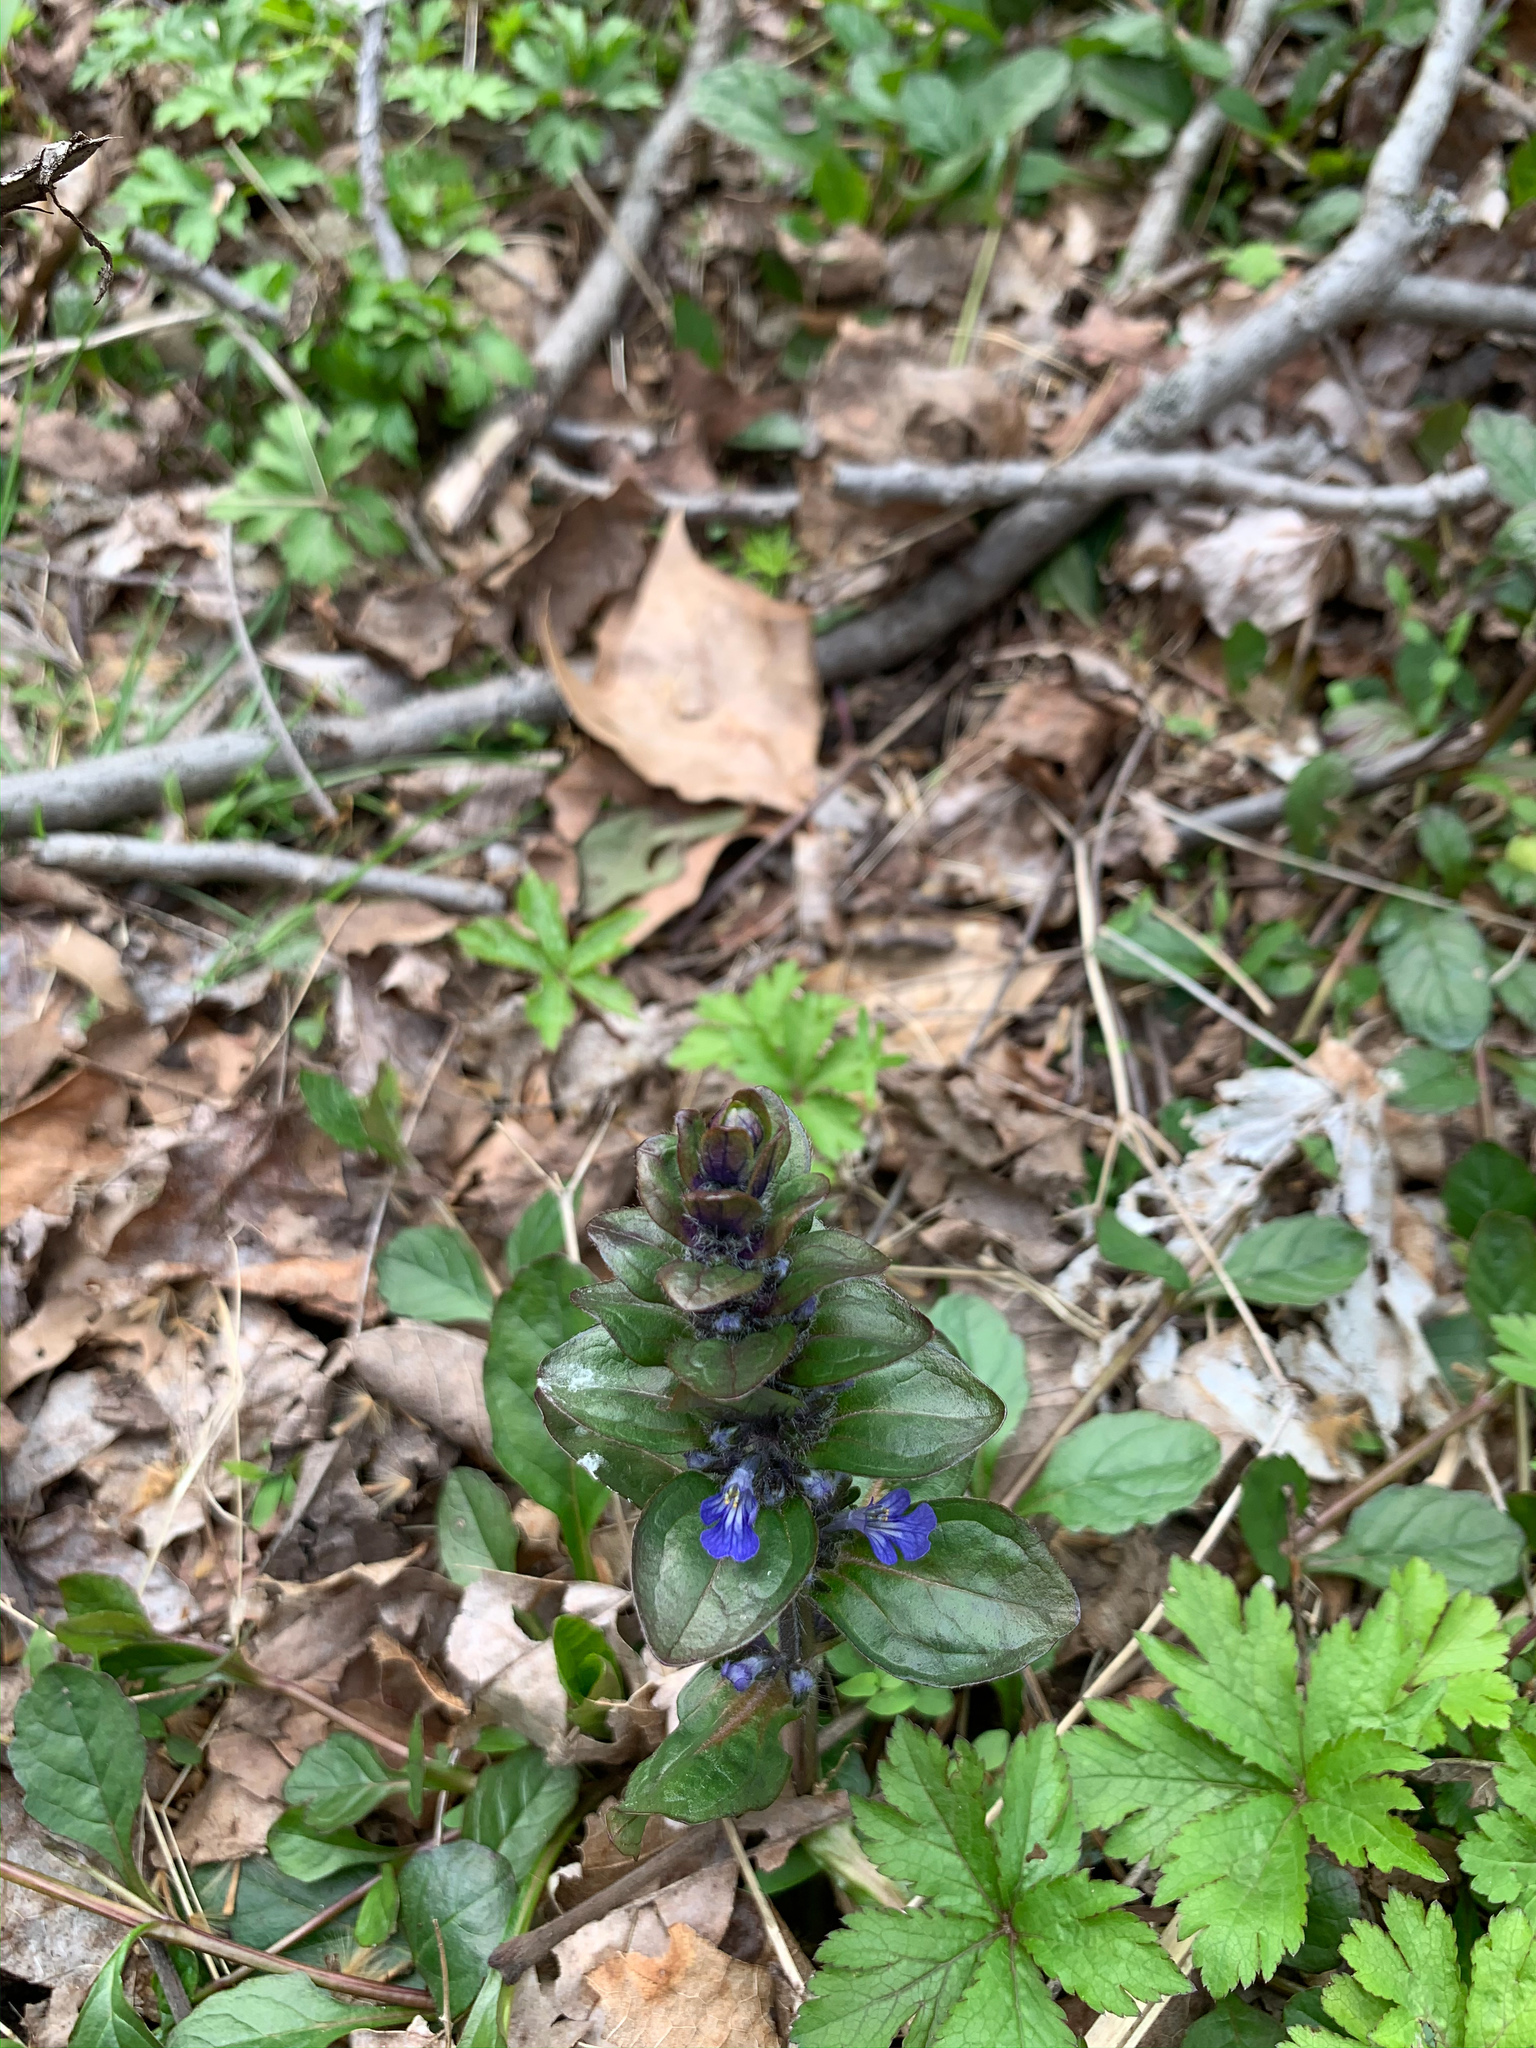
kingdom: Plantae
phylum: Tracheophyta
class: Magnoliopsida
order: Lamiales
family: Lamiaceae
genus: Ajuga
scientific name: Ajuga reptans
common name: Bugle
